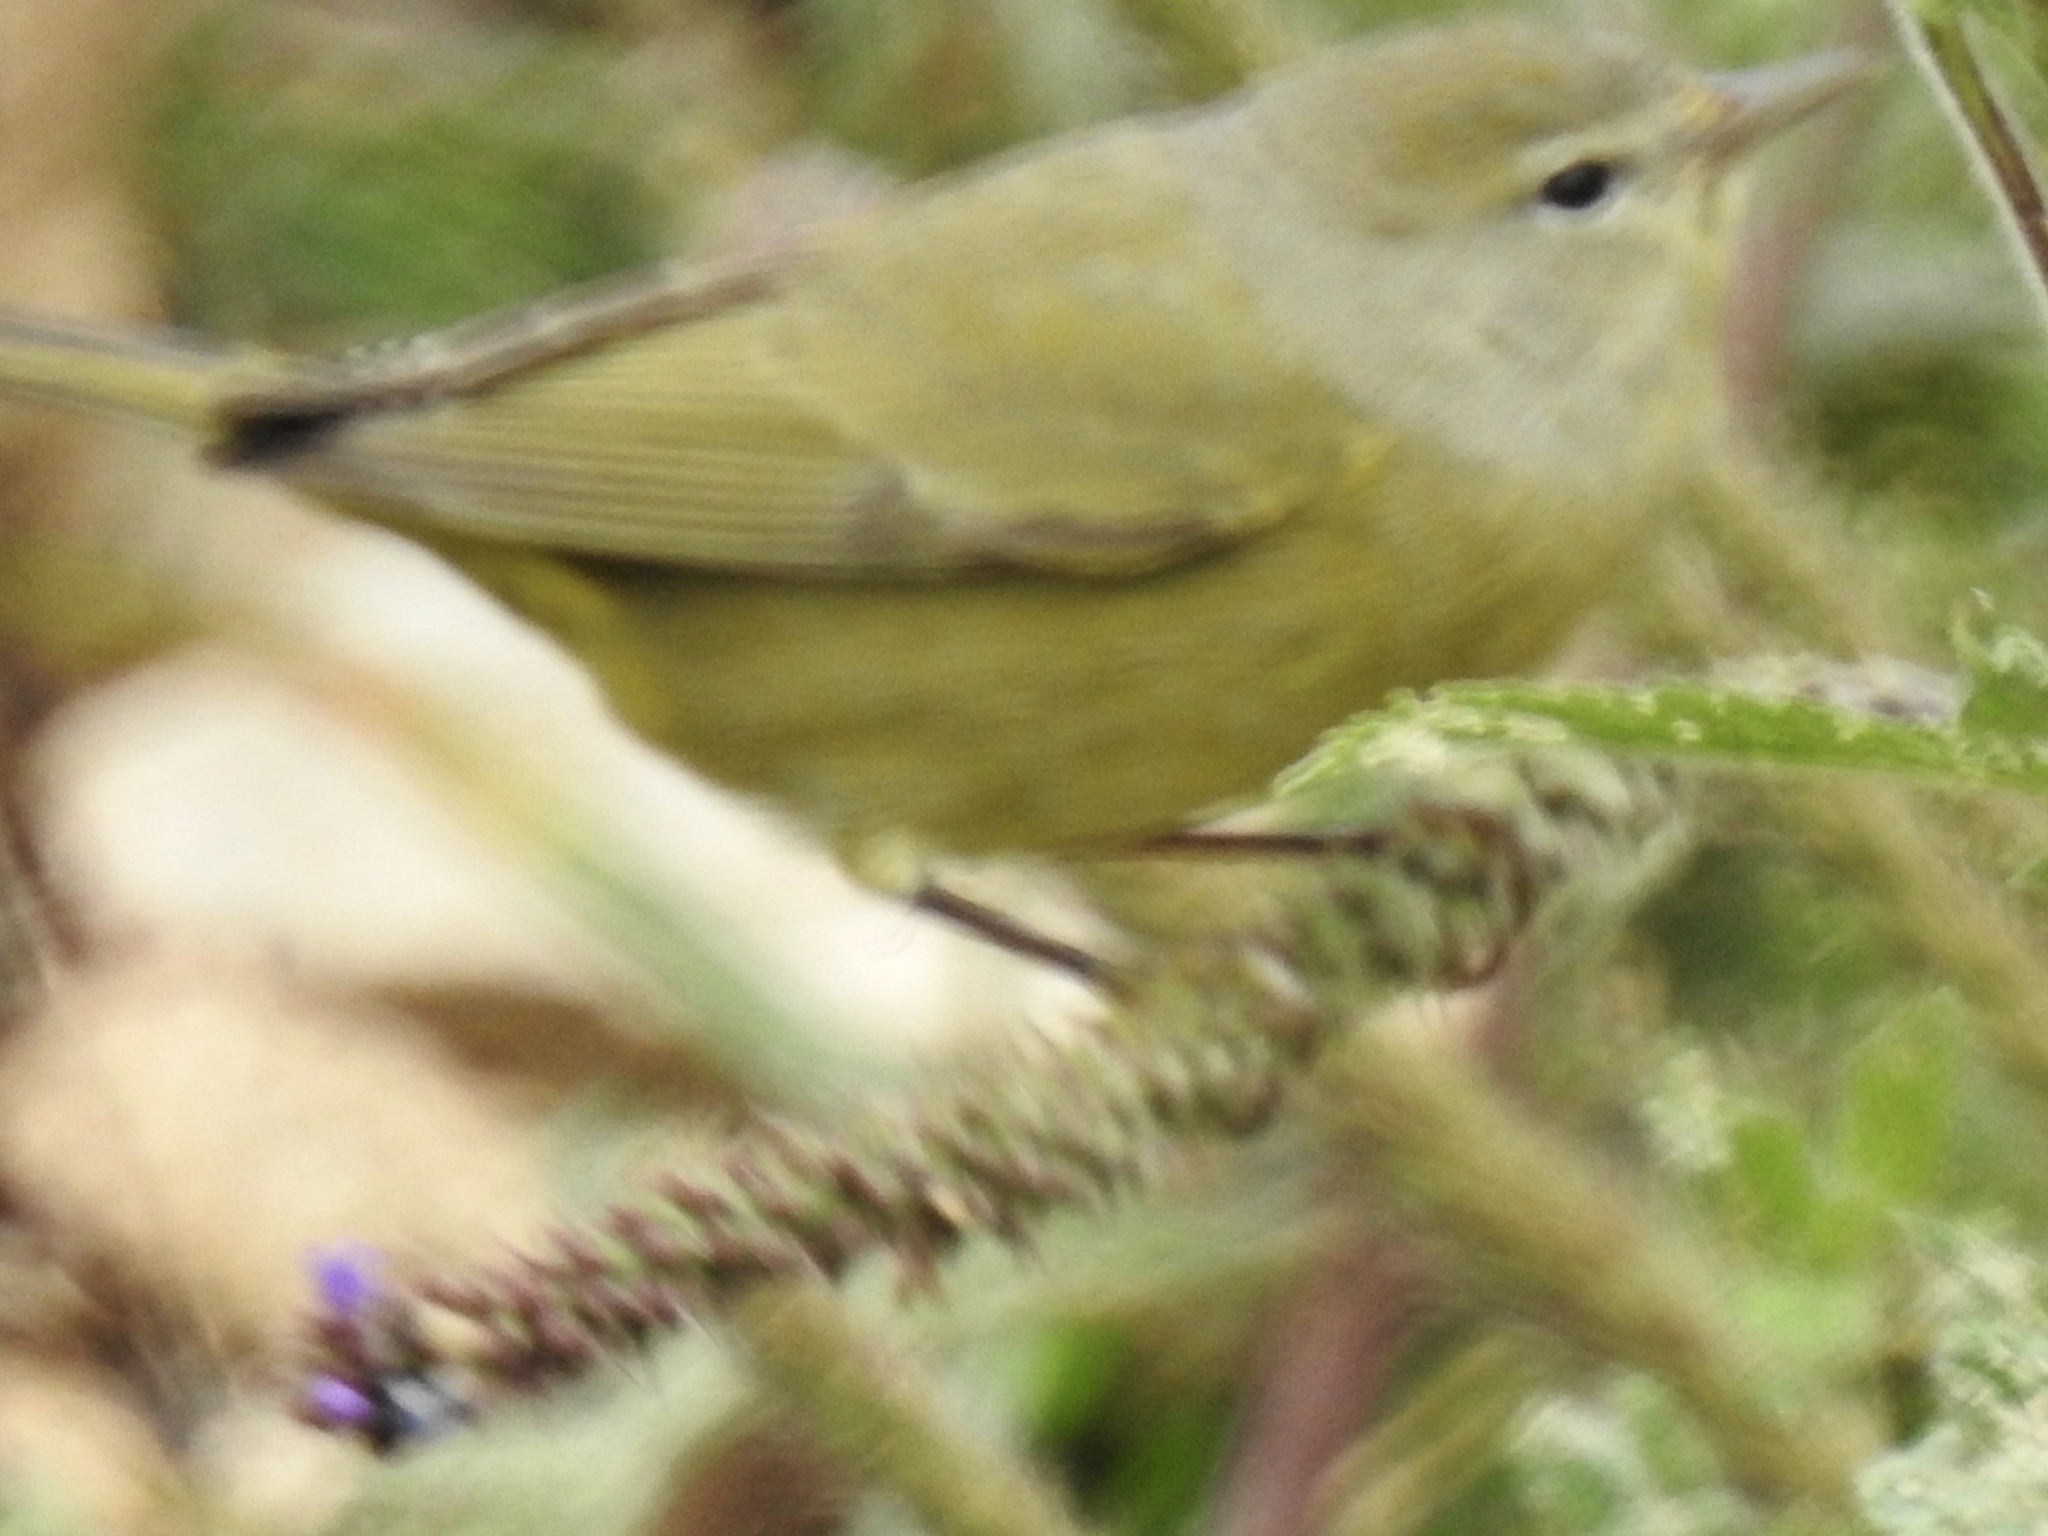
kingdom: Animalia
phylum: Chordata
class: Aves
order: Passeriformes
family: Parulidae
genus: Leiothlypis
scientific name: Leiothlypis celata
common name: Orange-crowned warbler
